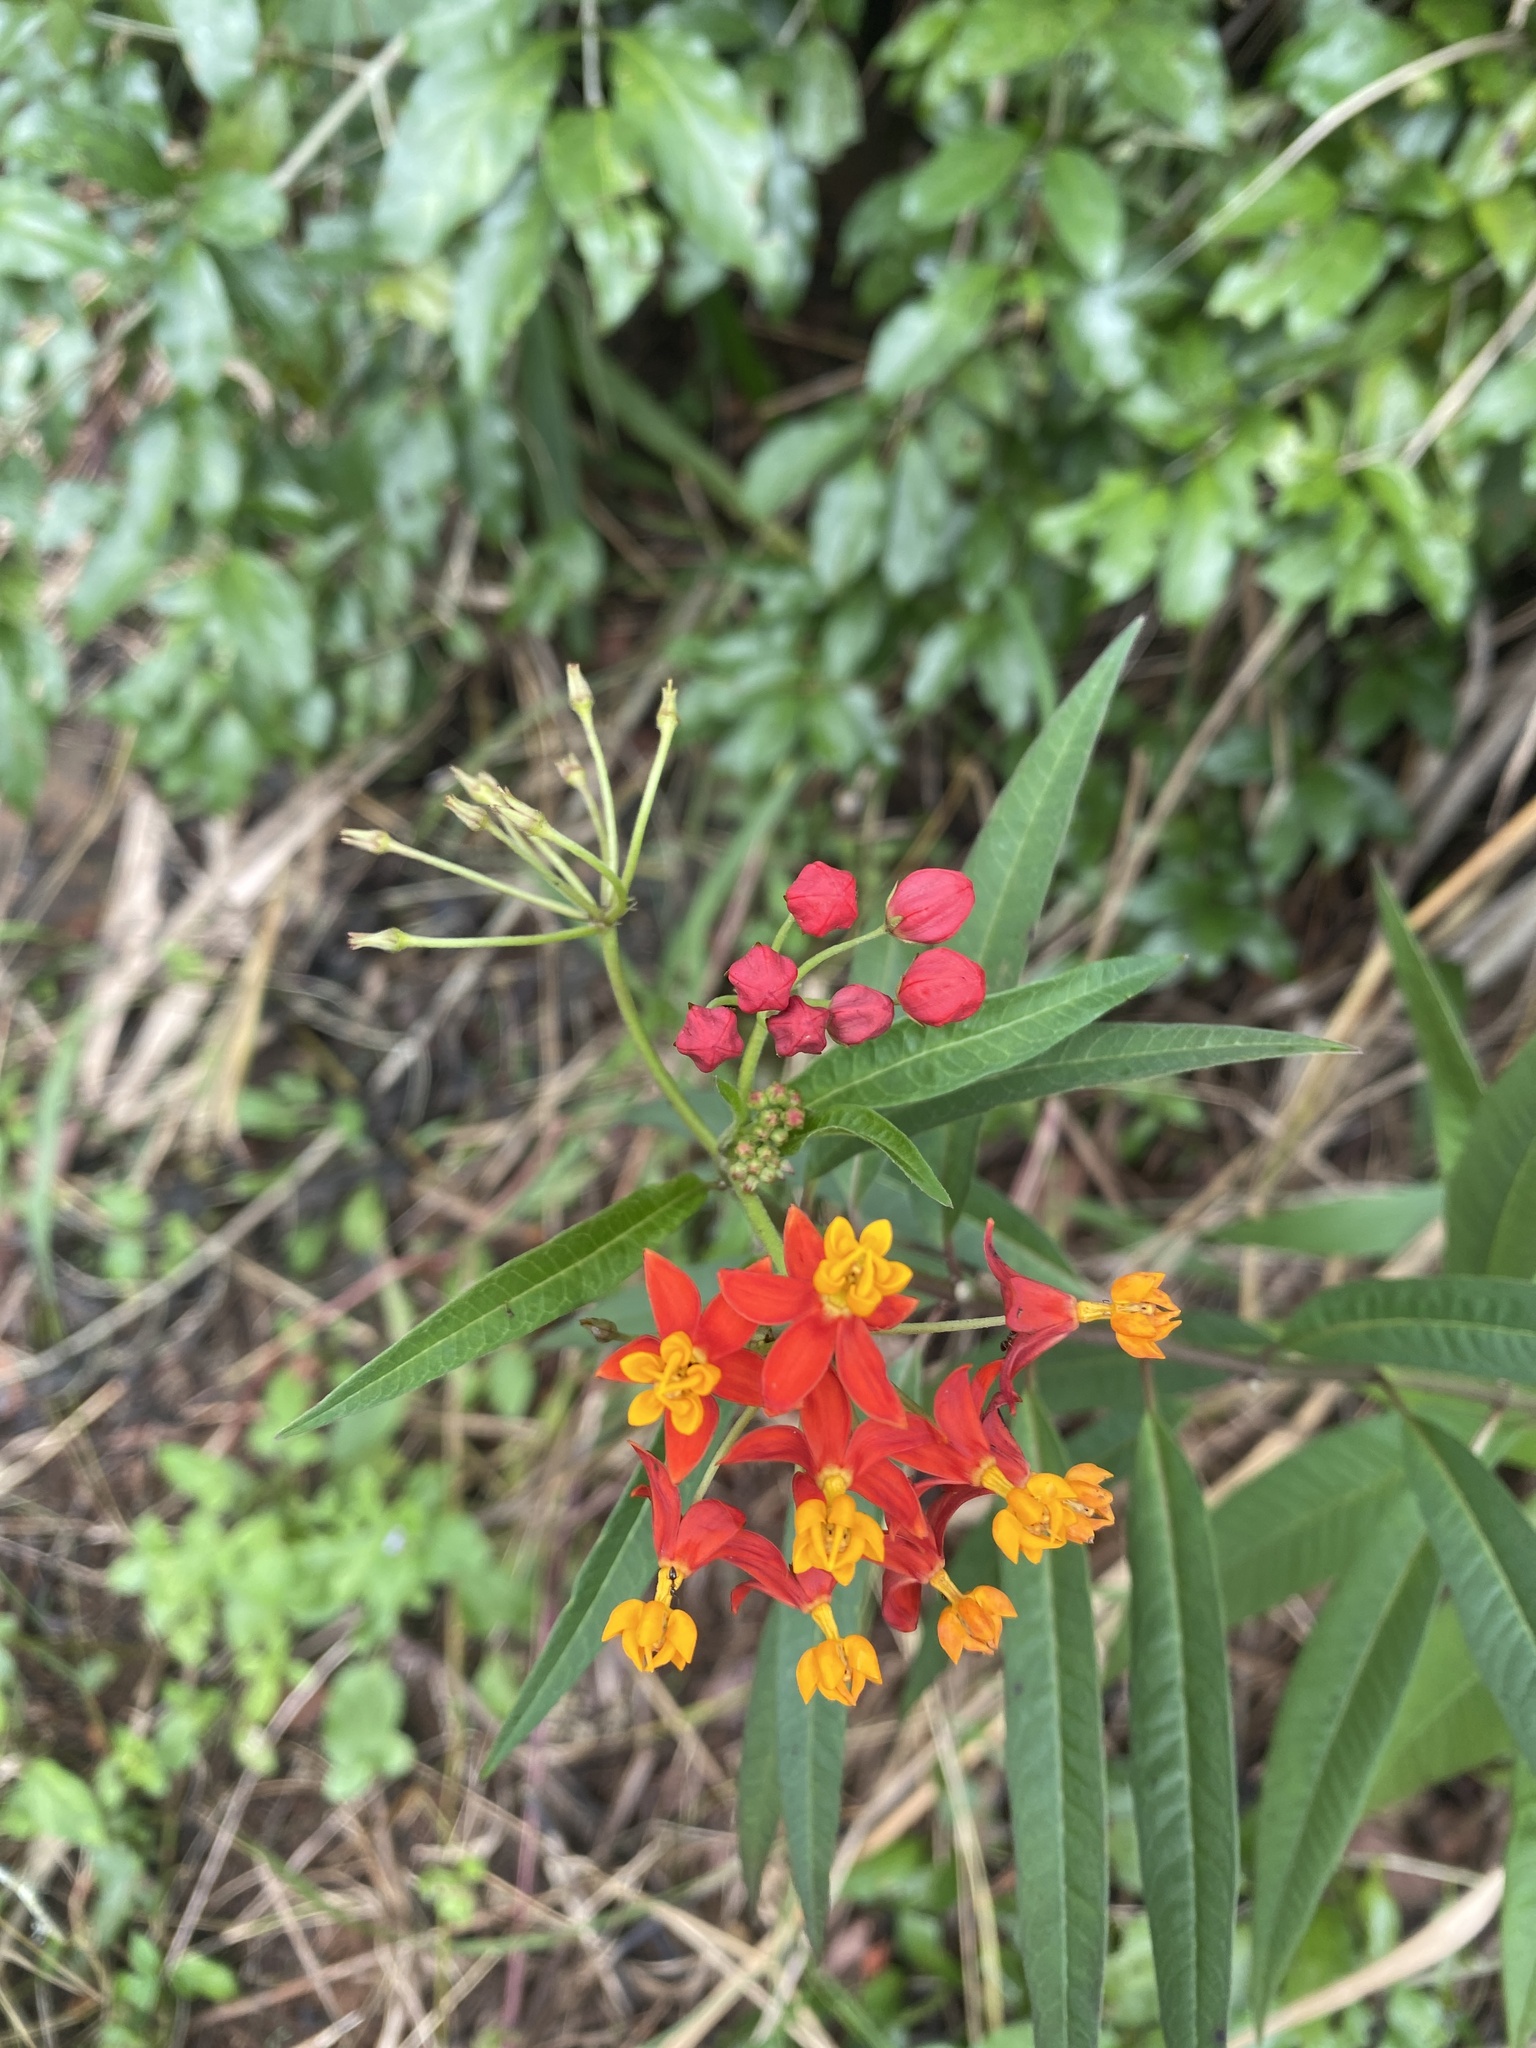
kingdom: Plantae
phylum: Tracheophyta
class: Magnoliopsida
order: Gentianales
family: Apocynaceae
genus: Asclepias
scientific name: Asclepias curassavica
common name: Bloodflower
